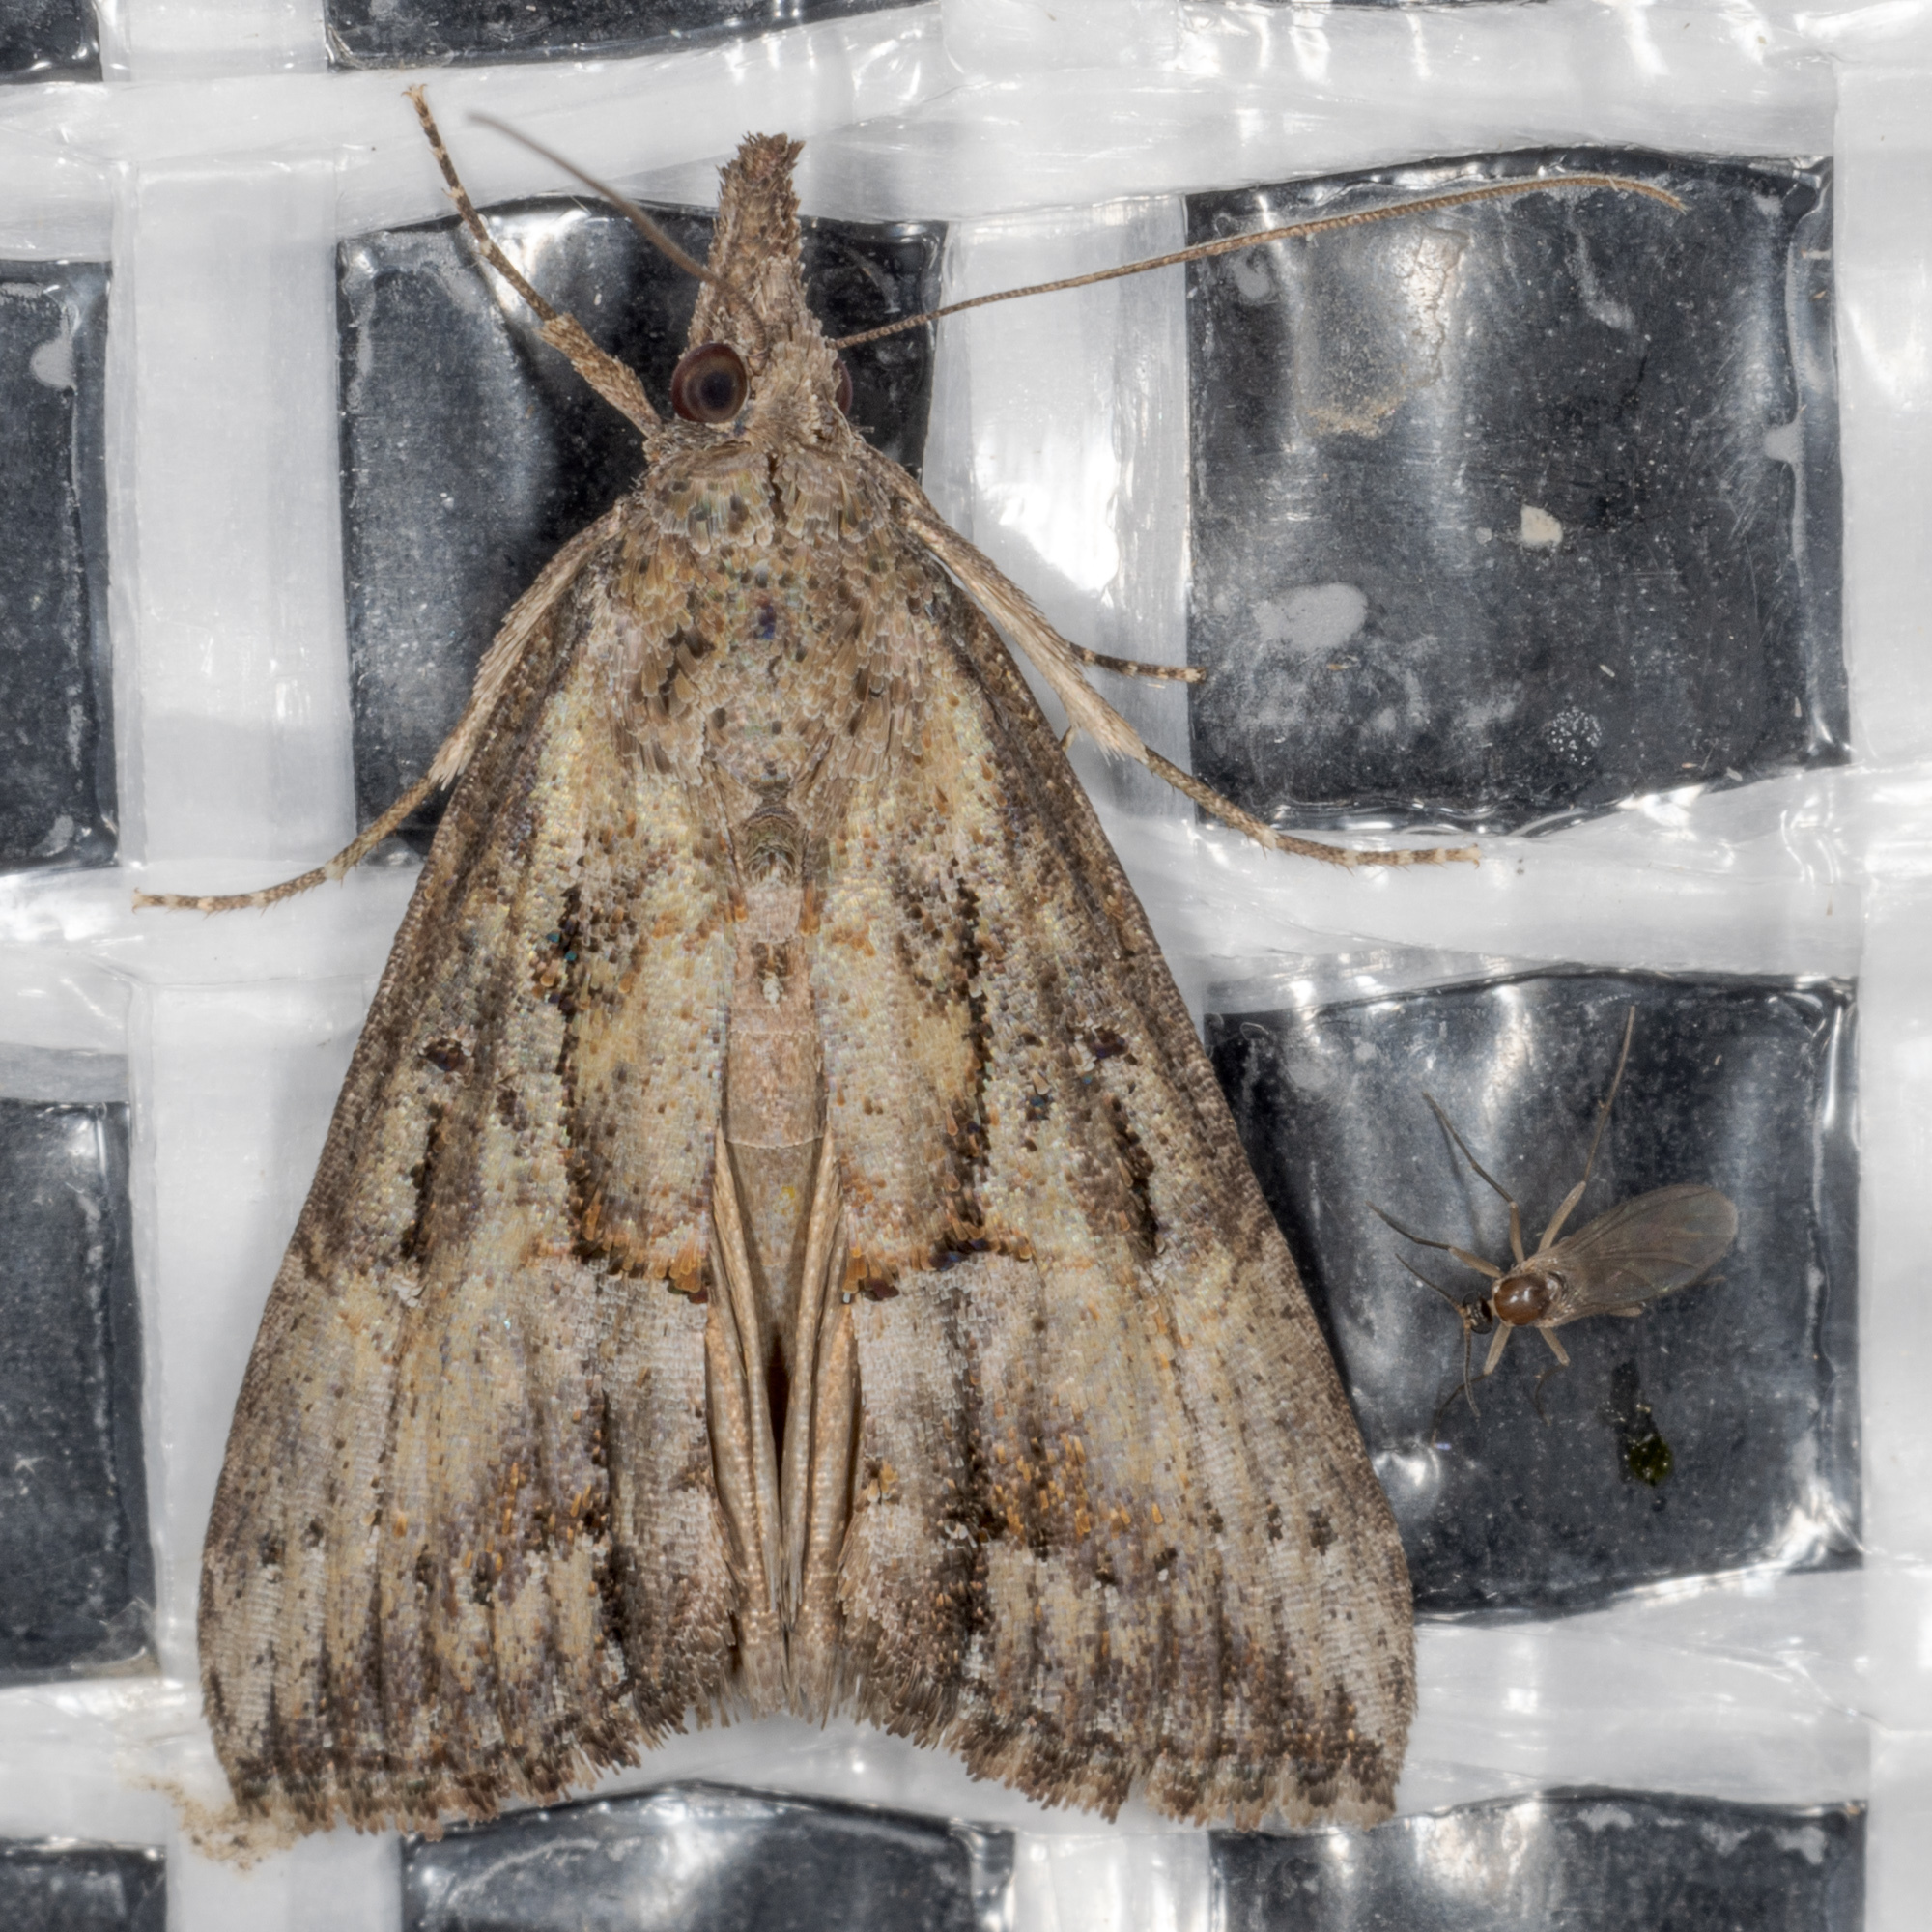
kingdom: Animalia
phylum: Arthropoda
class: Insecta
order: Lepidoptera
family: Erebidae
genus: Hypena
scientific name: Hypena scabra
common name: Green cloverworm
